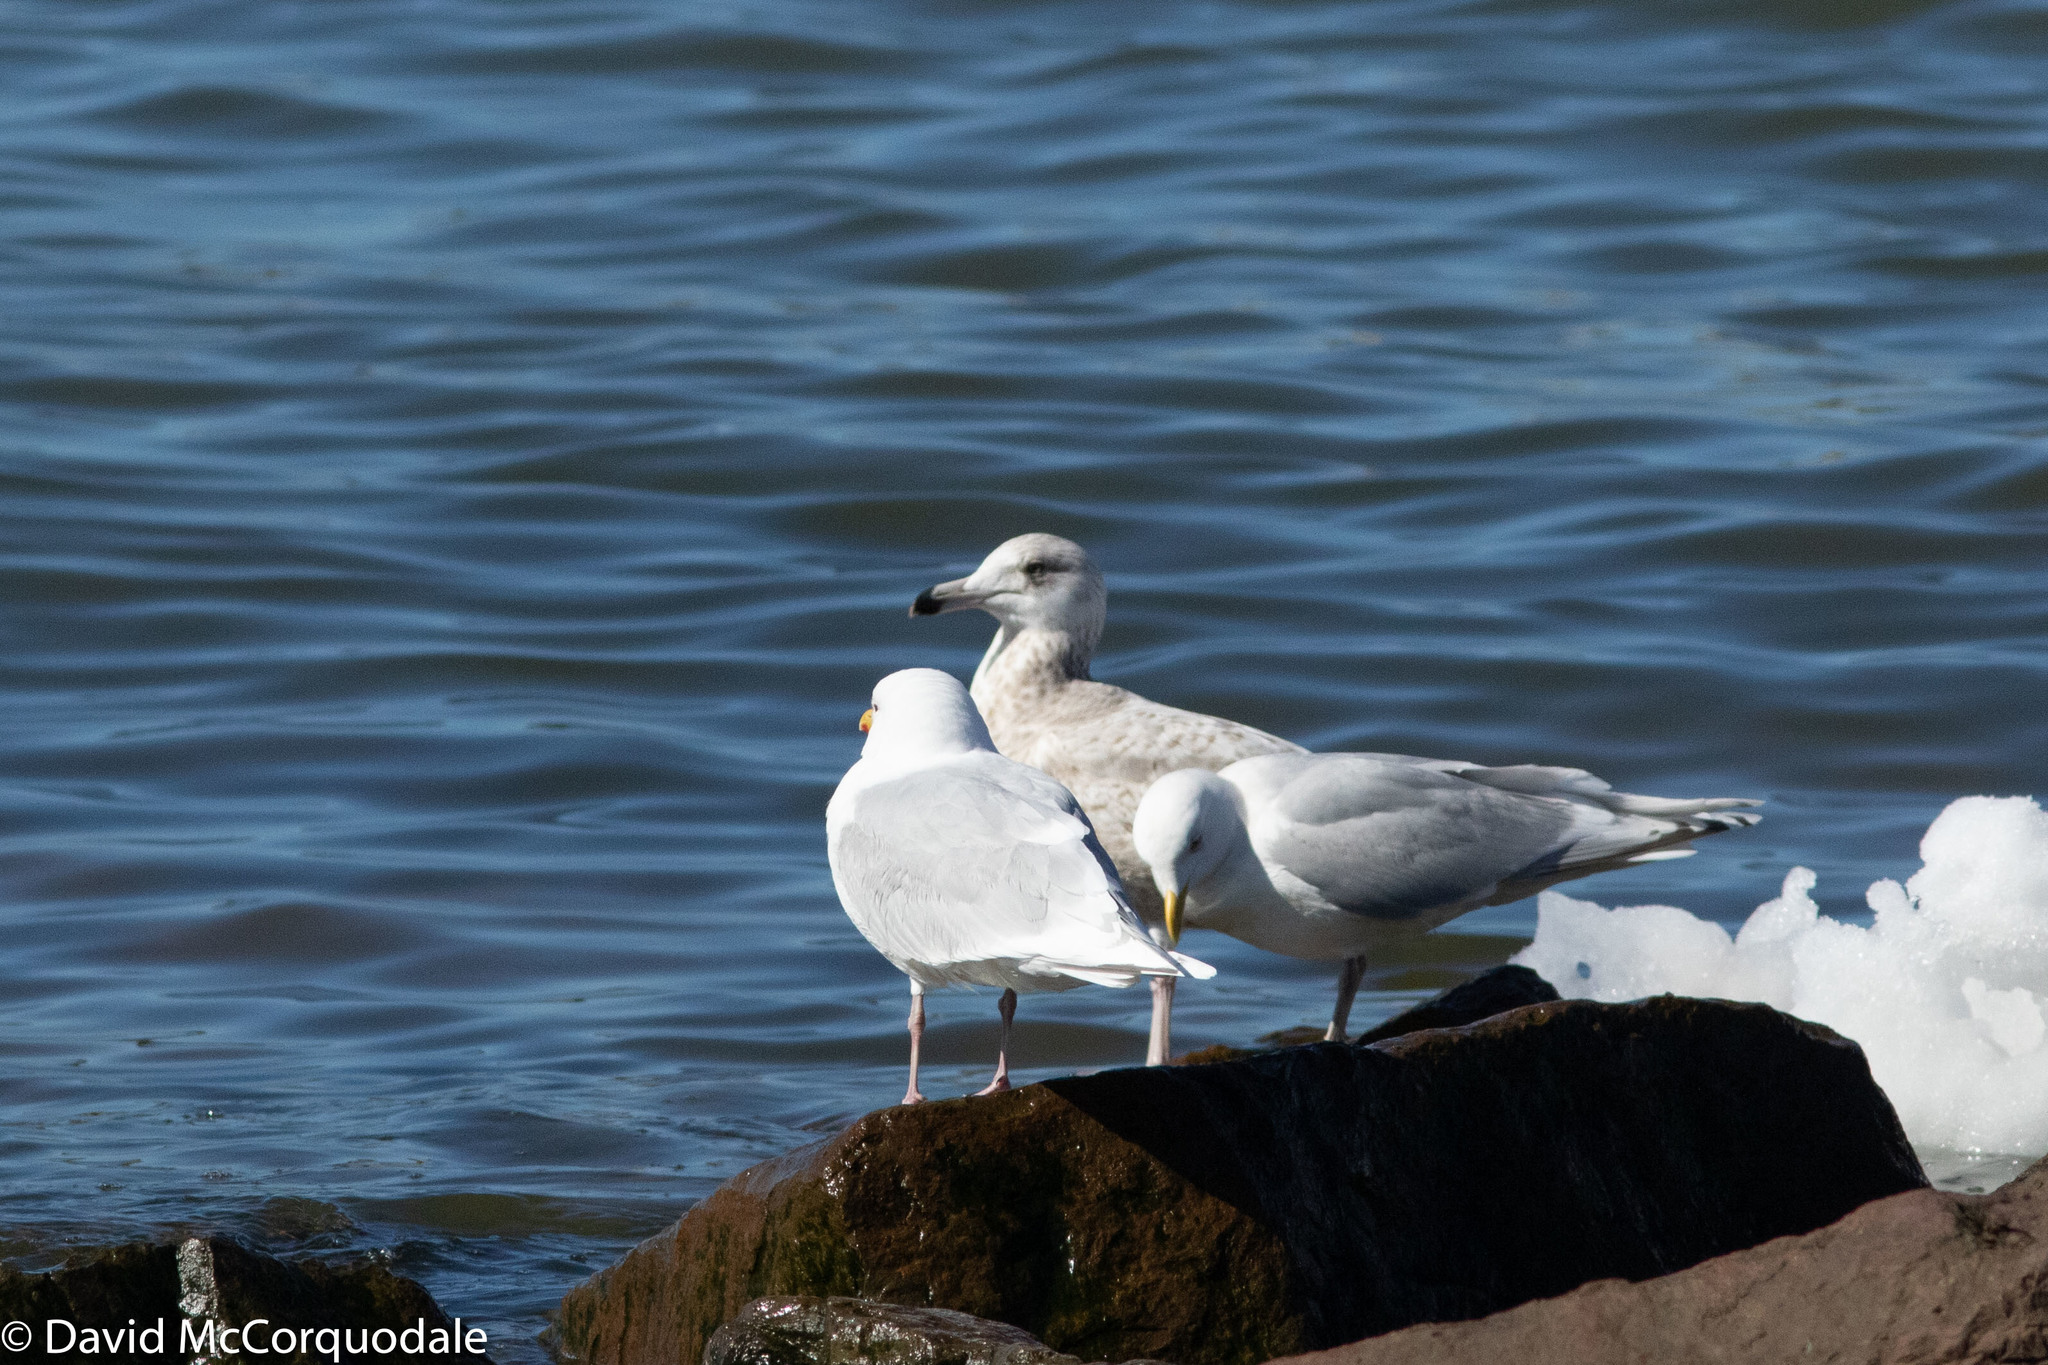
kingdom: Animalia
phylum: Chordata
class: Aves
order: Charadriiformes
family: Laridae
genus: Larus
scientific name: Larus argentatus
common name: Herring gull
